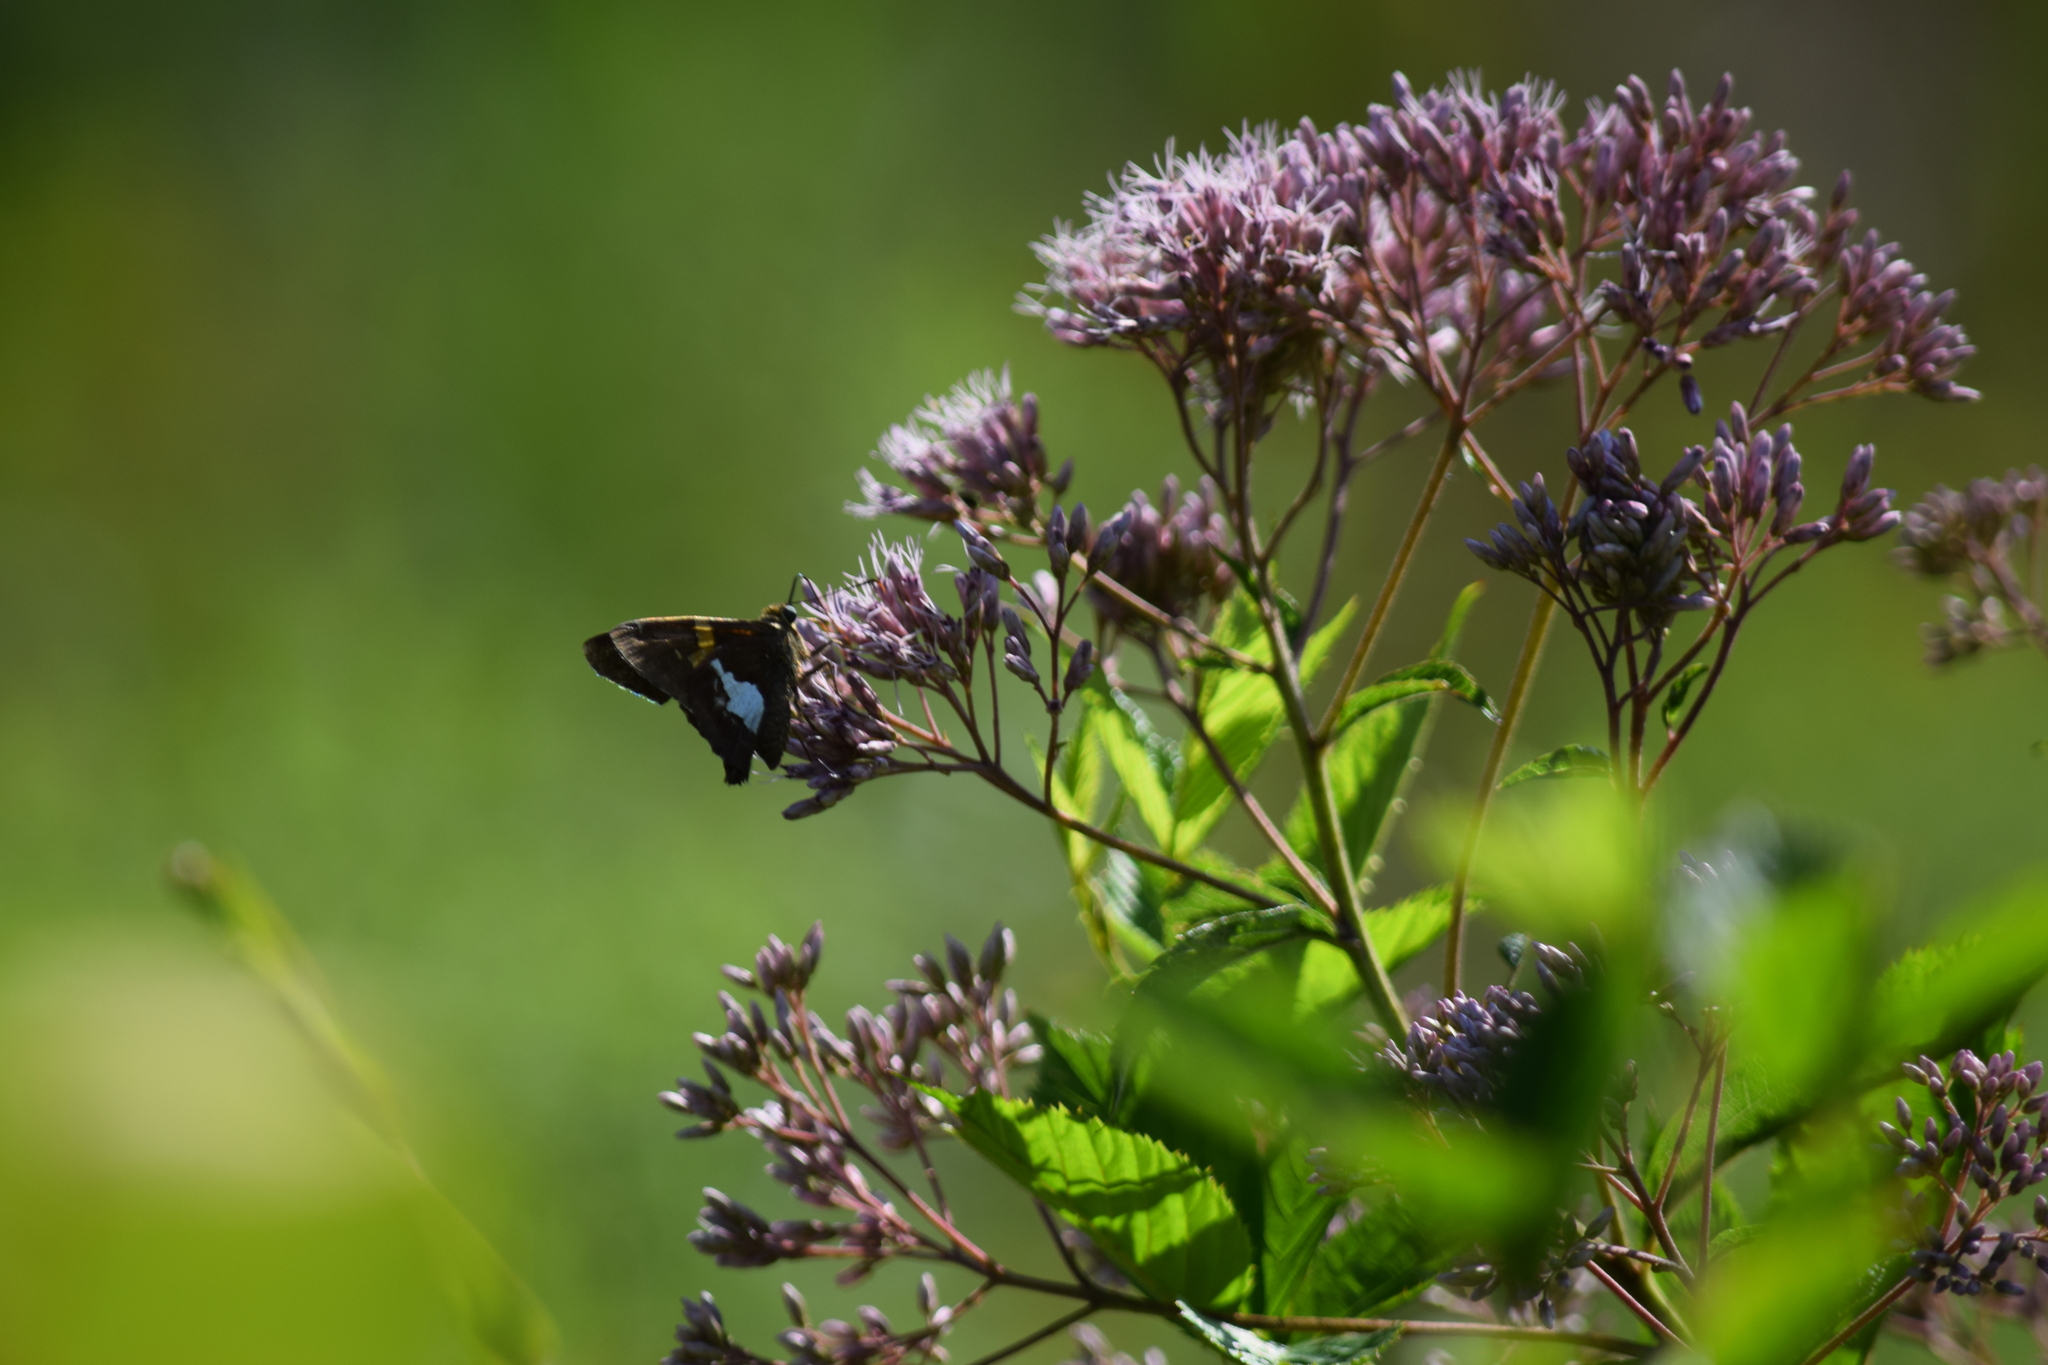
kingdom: Animalia
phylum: Arthropoda
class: Insecta
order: Lepidoptera
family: Hesperiidae
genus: Epargyreus
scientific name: Epargyreus clarus
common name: Silver-spotted skipper
